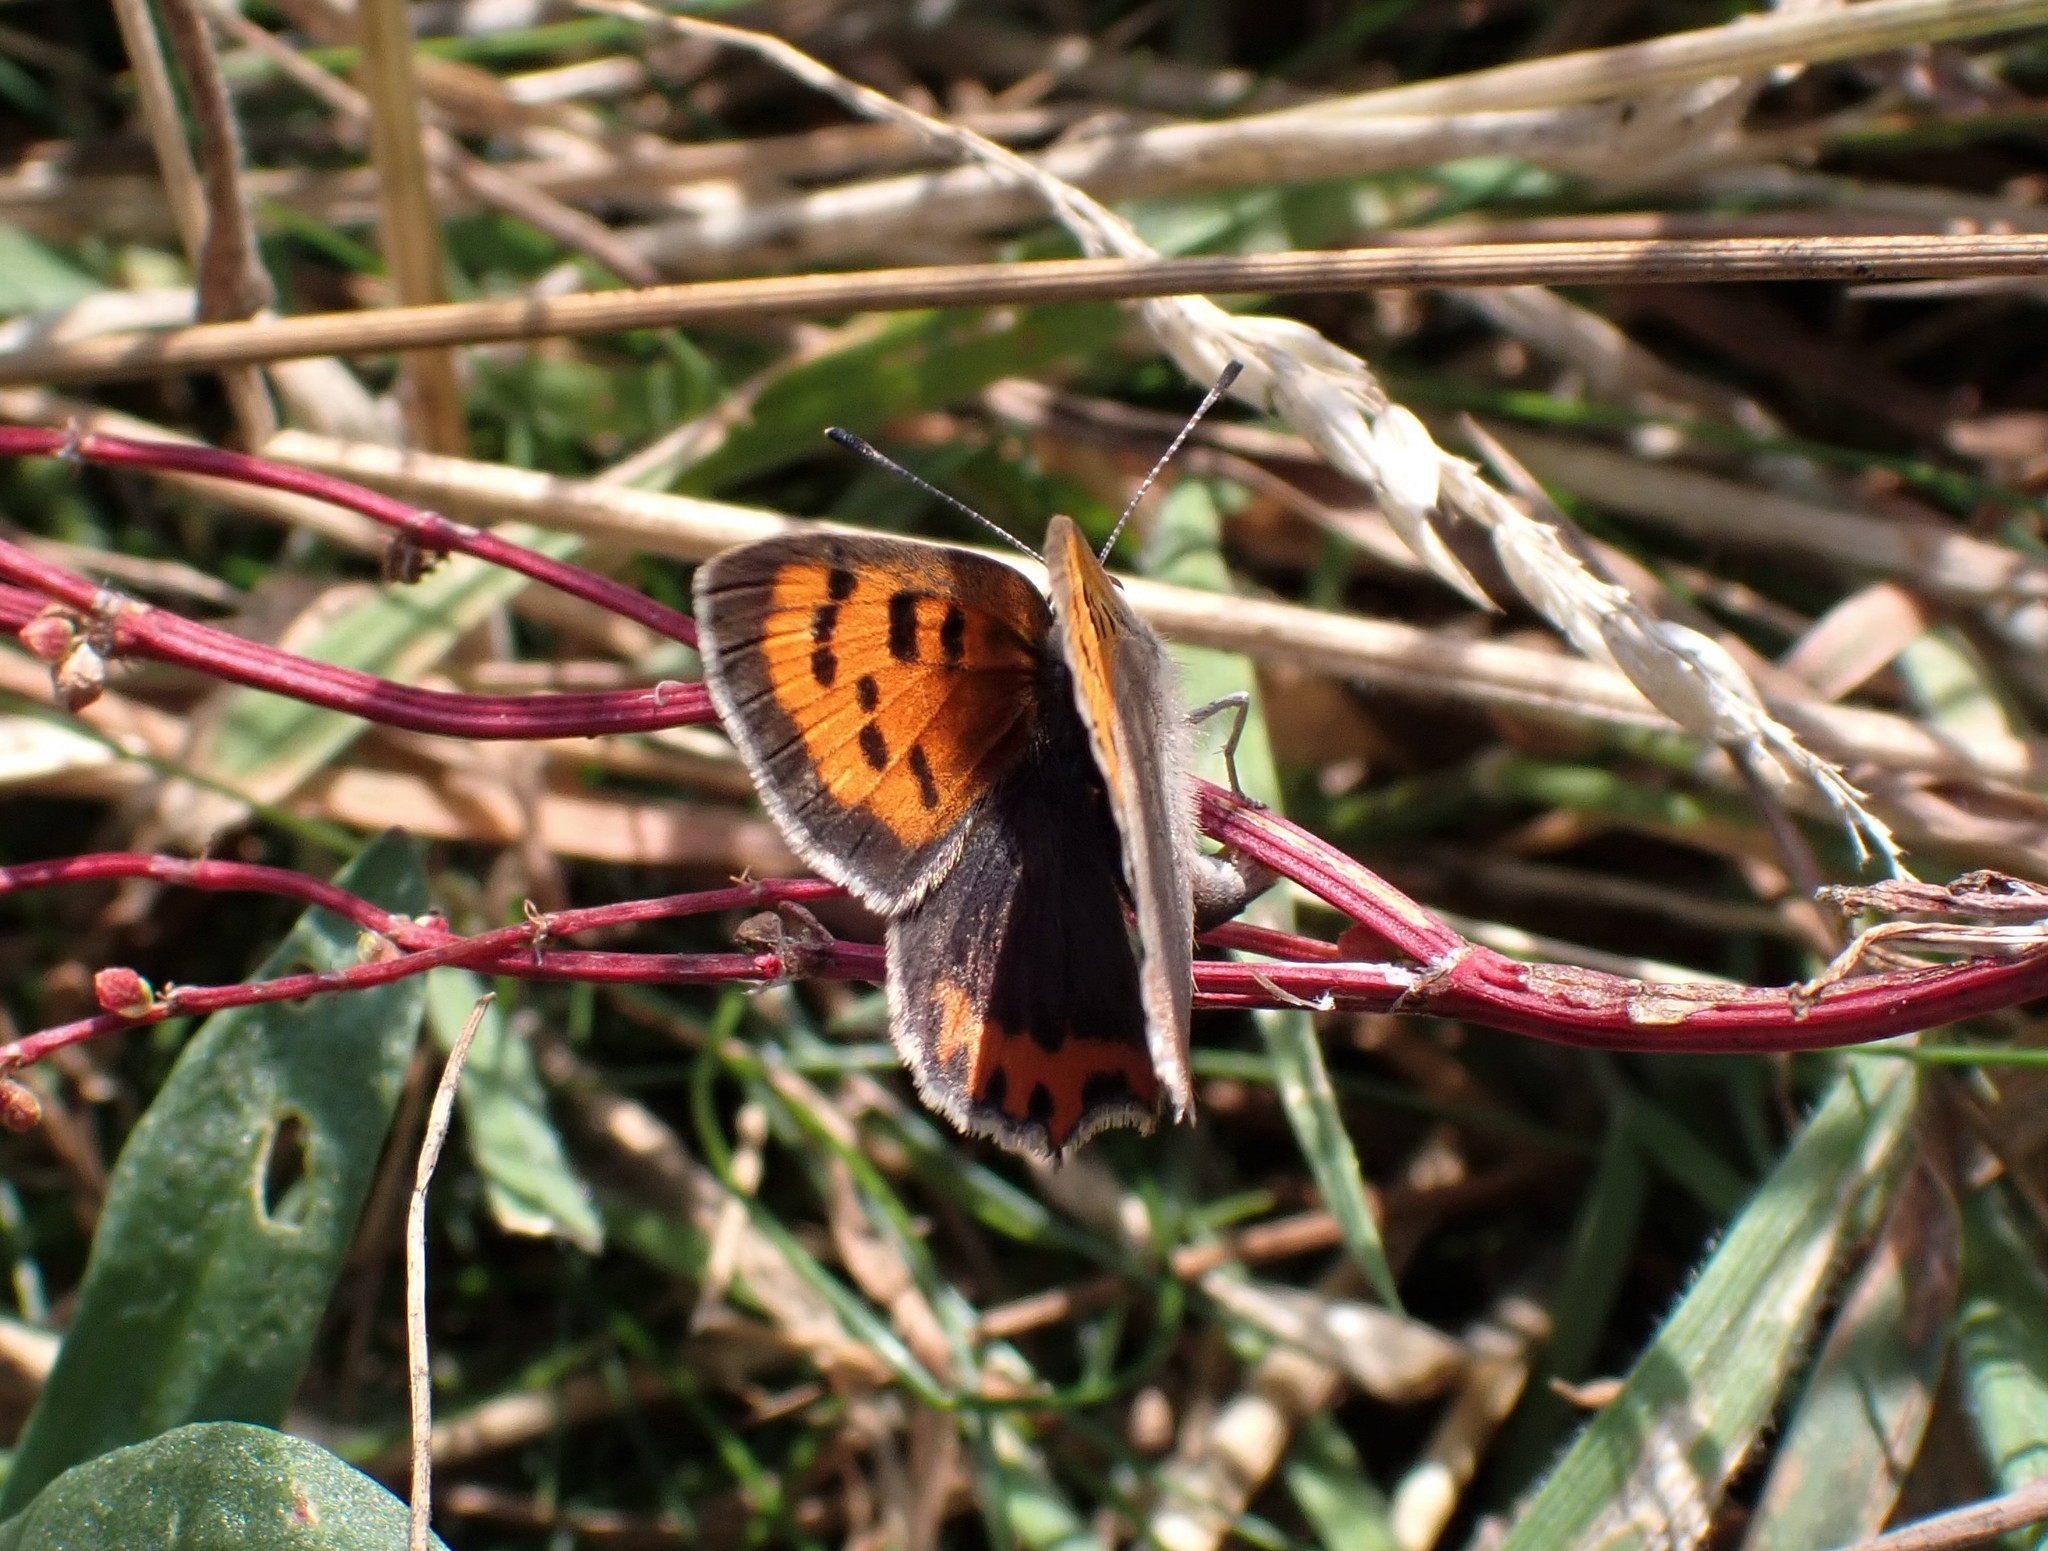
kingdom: Animalia
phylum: Arthropoda
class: Insecta
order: Lepidoptera
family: Lycaenidae
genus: Lycaena
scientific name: Lycaena phlaeas
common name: Small copper
